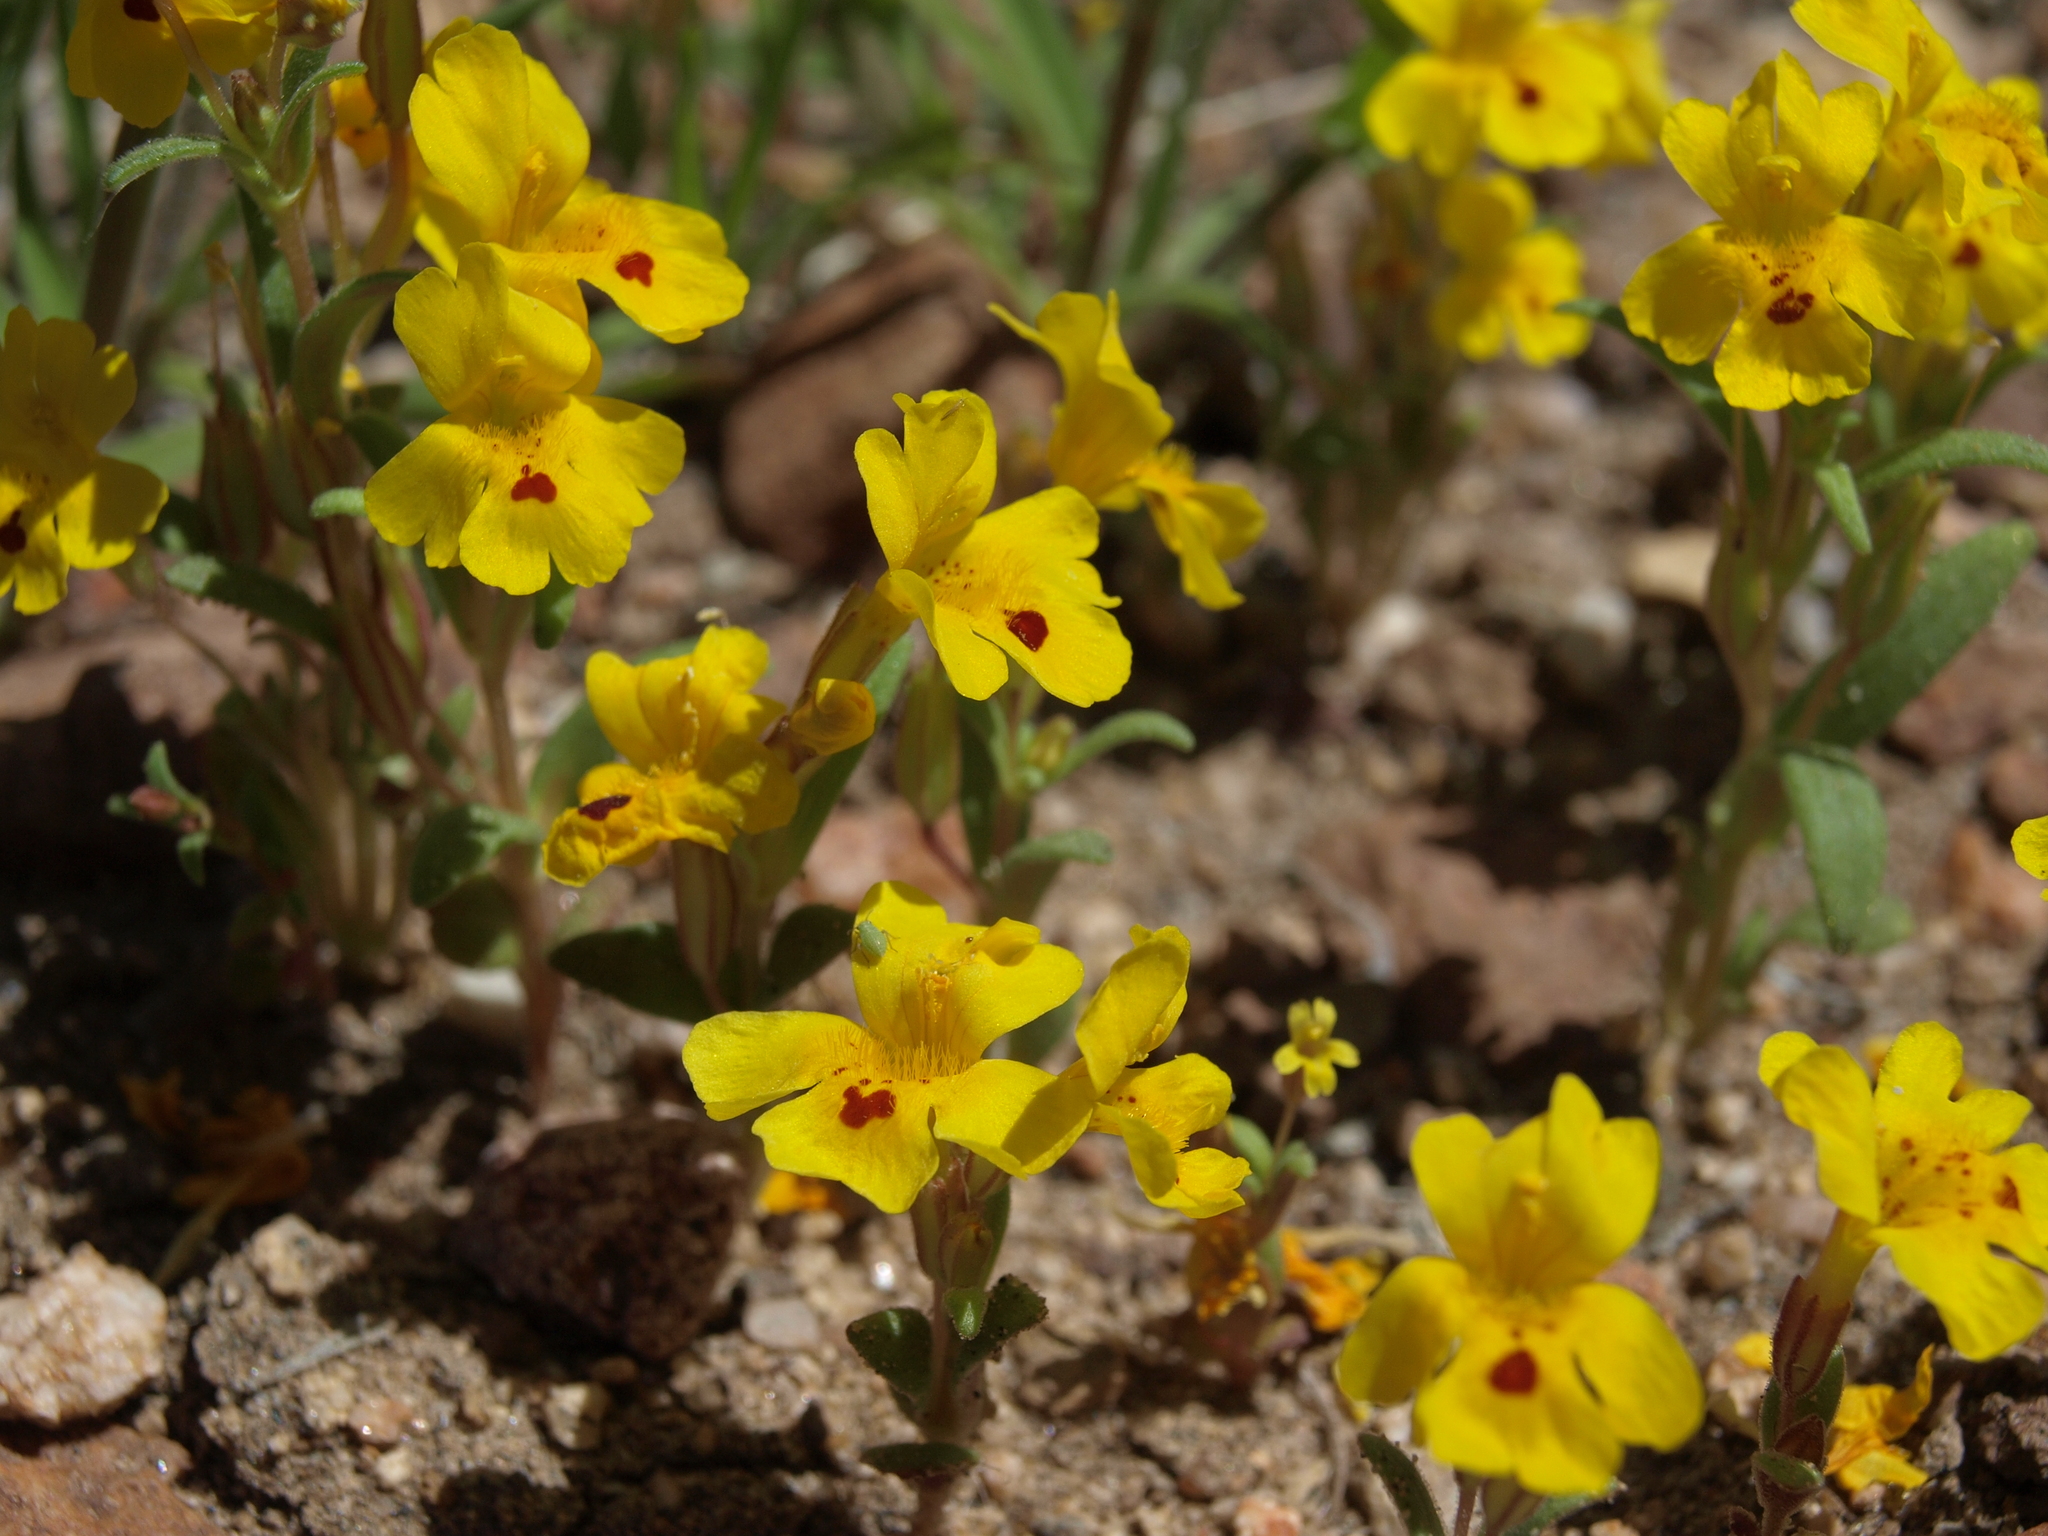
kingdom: Plantae
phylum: Tracheophyta
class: Magnoliopsida
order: Lamiales
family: Phrymaceae
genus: Erythranthe
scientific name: Erythranthe carsonensis
